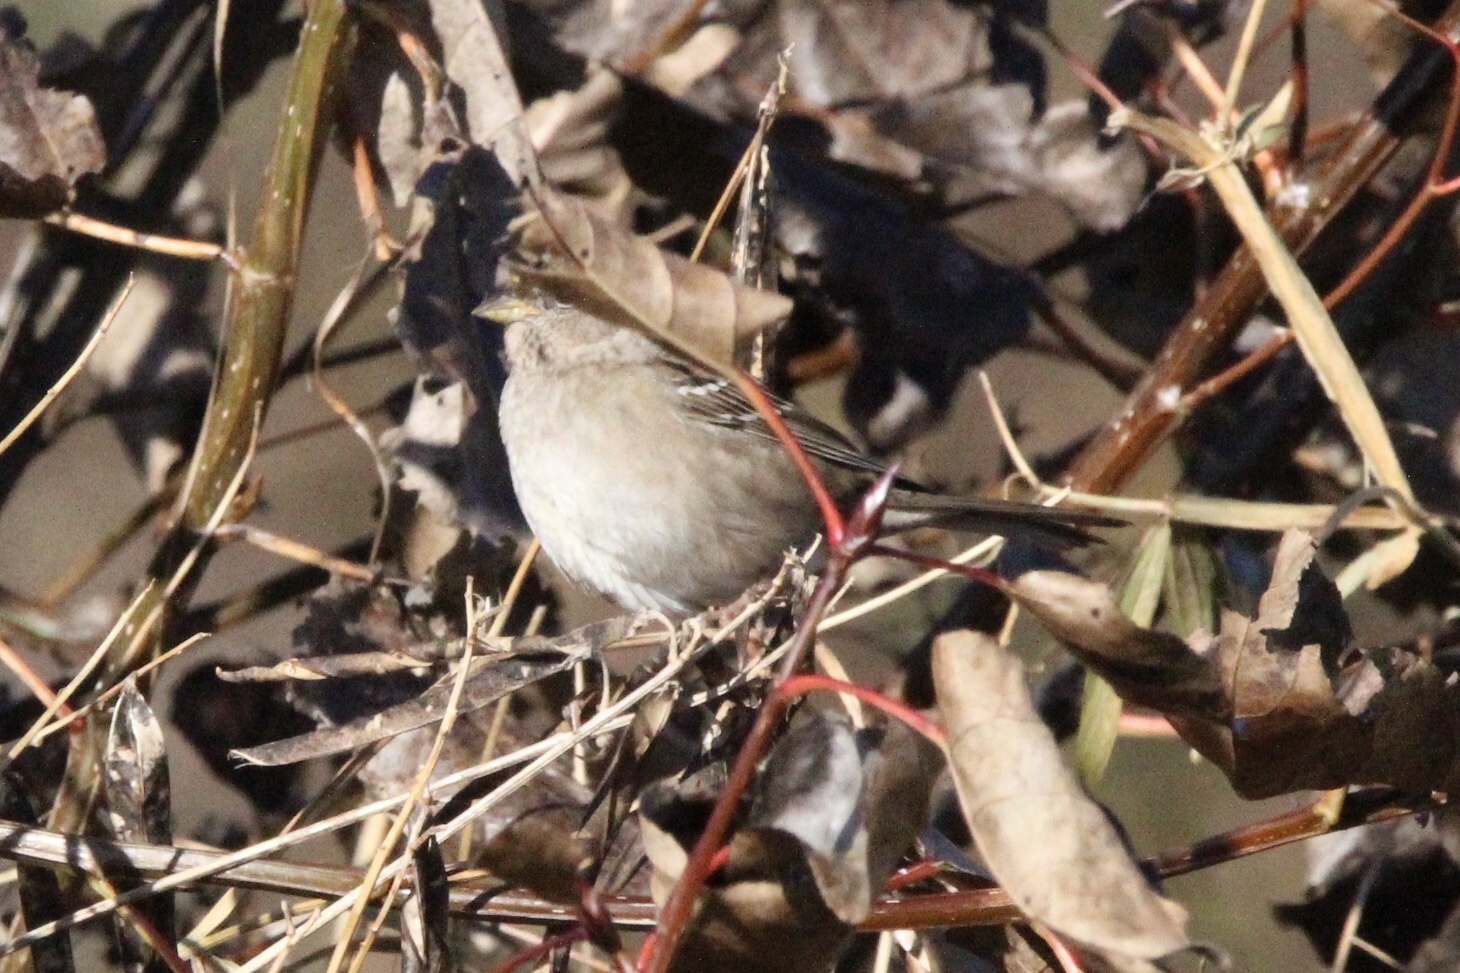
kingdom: Animalia
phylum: Chordata
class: Aves
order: Passeriformes
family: Passerellidae
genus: Zonotrichia
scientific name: Zonotrichia atricapilla
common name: Golden-crowned sparrow
